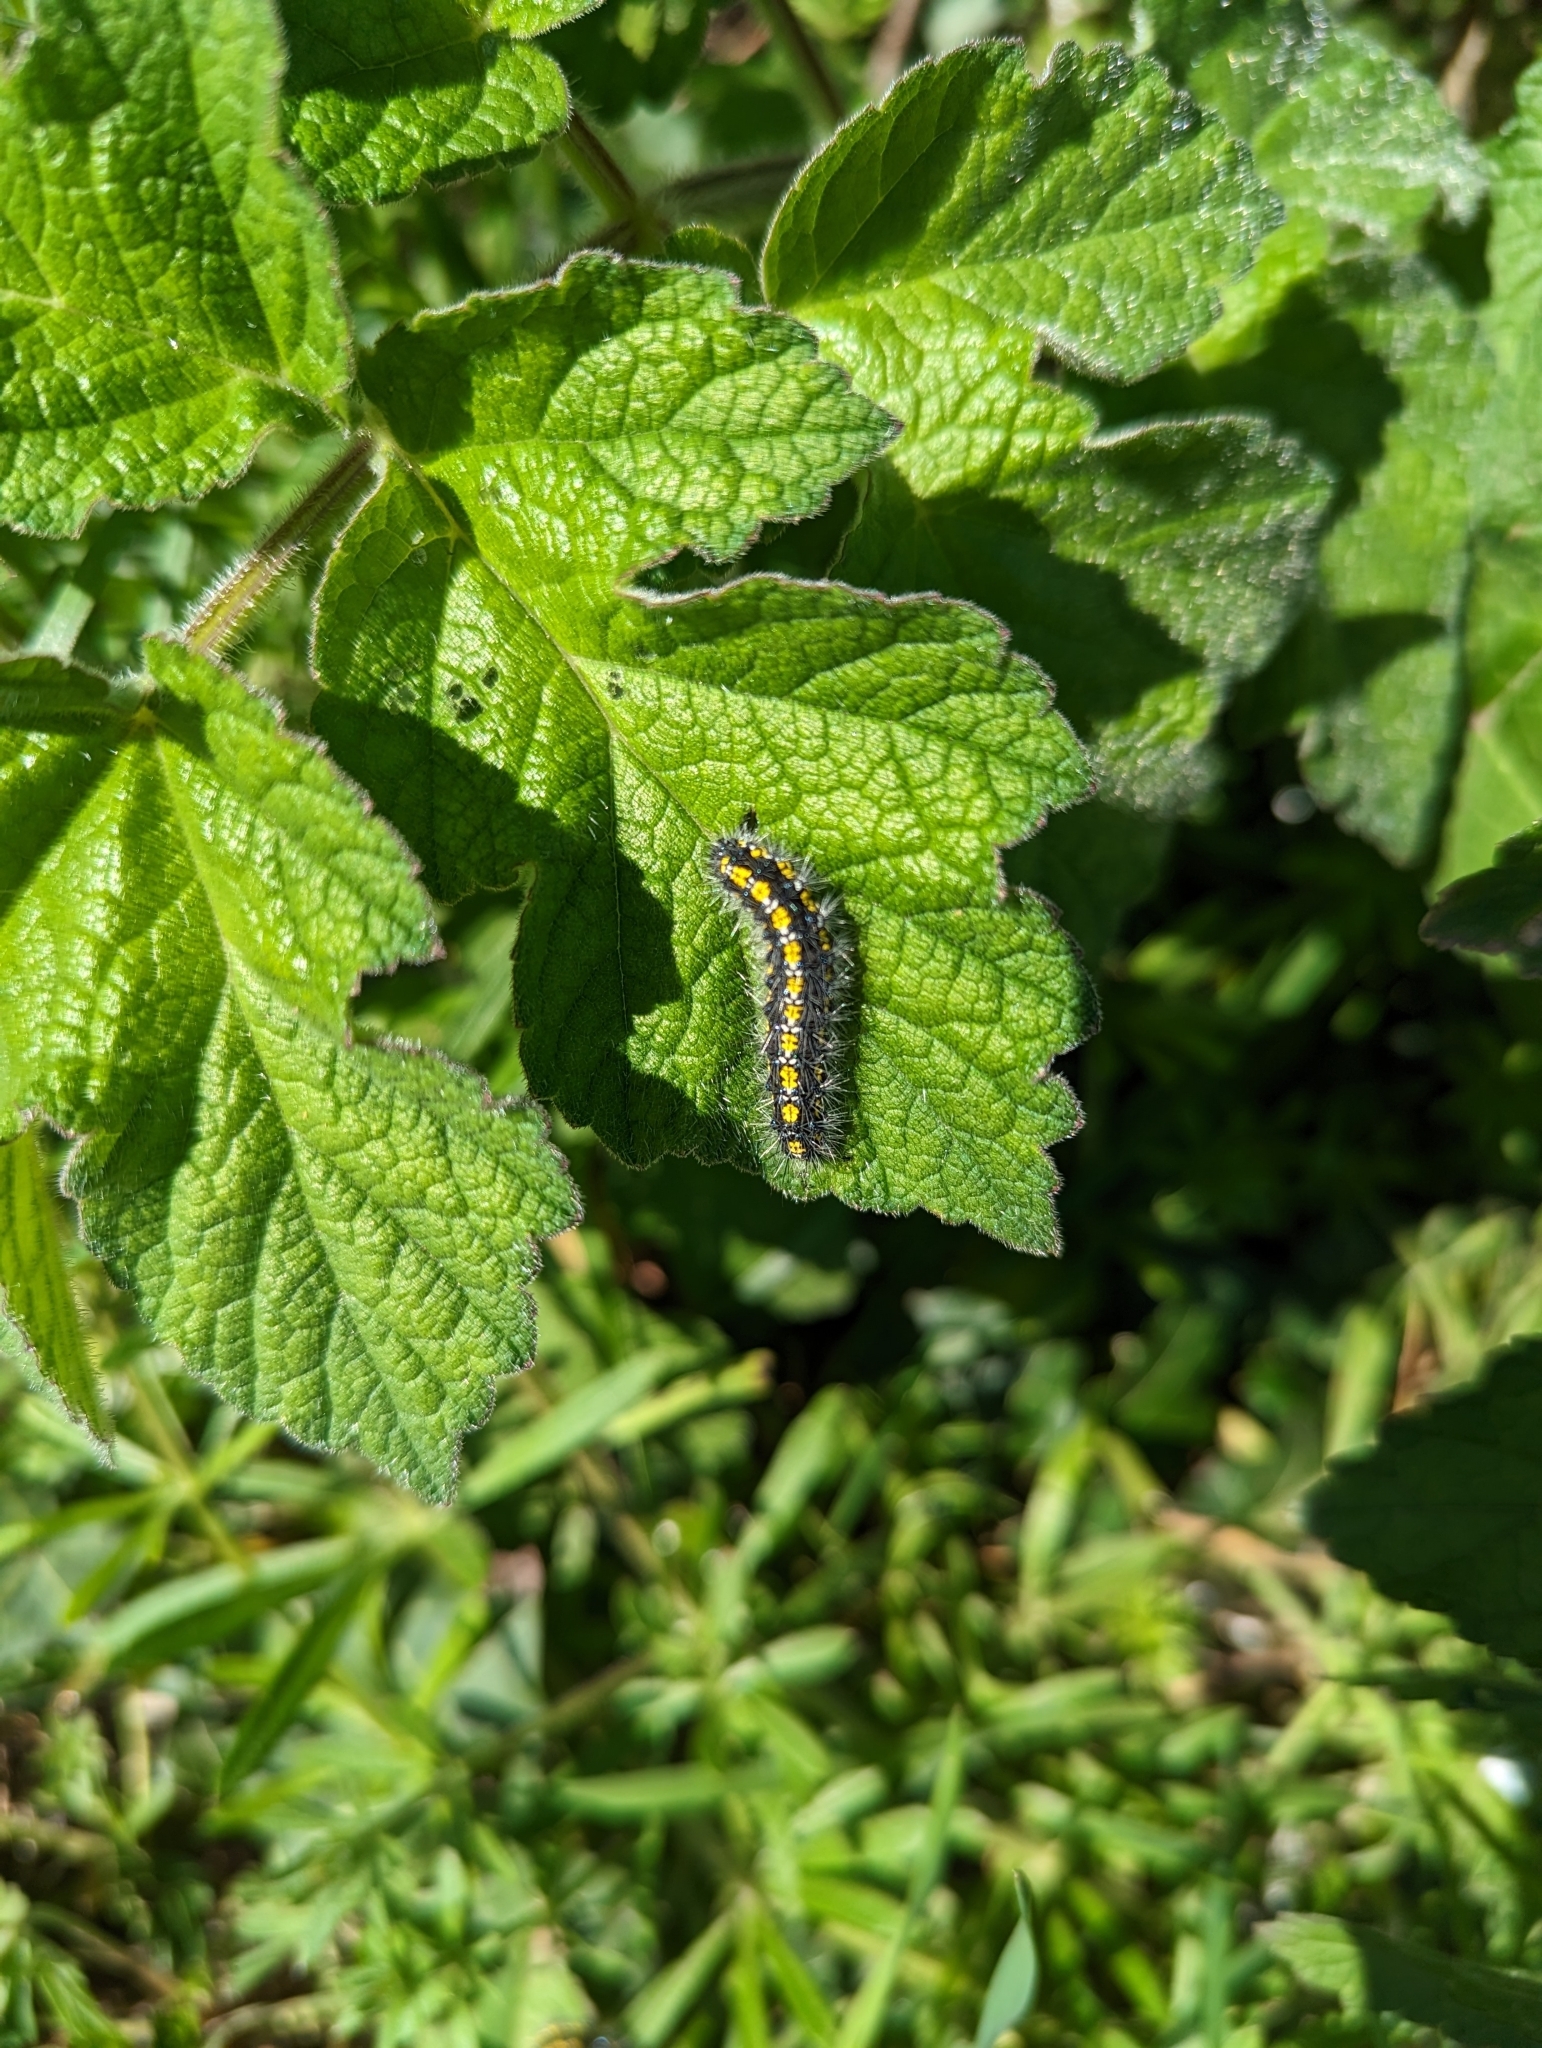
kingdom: Animalia
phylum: Arthropoda
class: Insecta
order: Lepidoptera
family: Erebidae
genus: Callimorpha
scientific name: Callimorpha dominula
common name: Scarlet tiger
